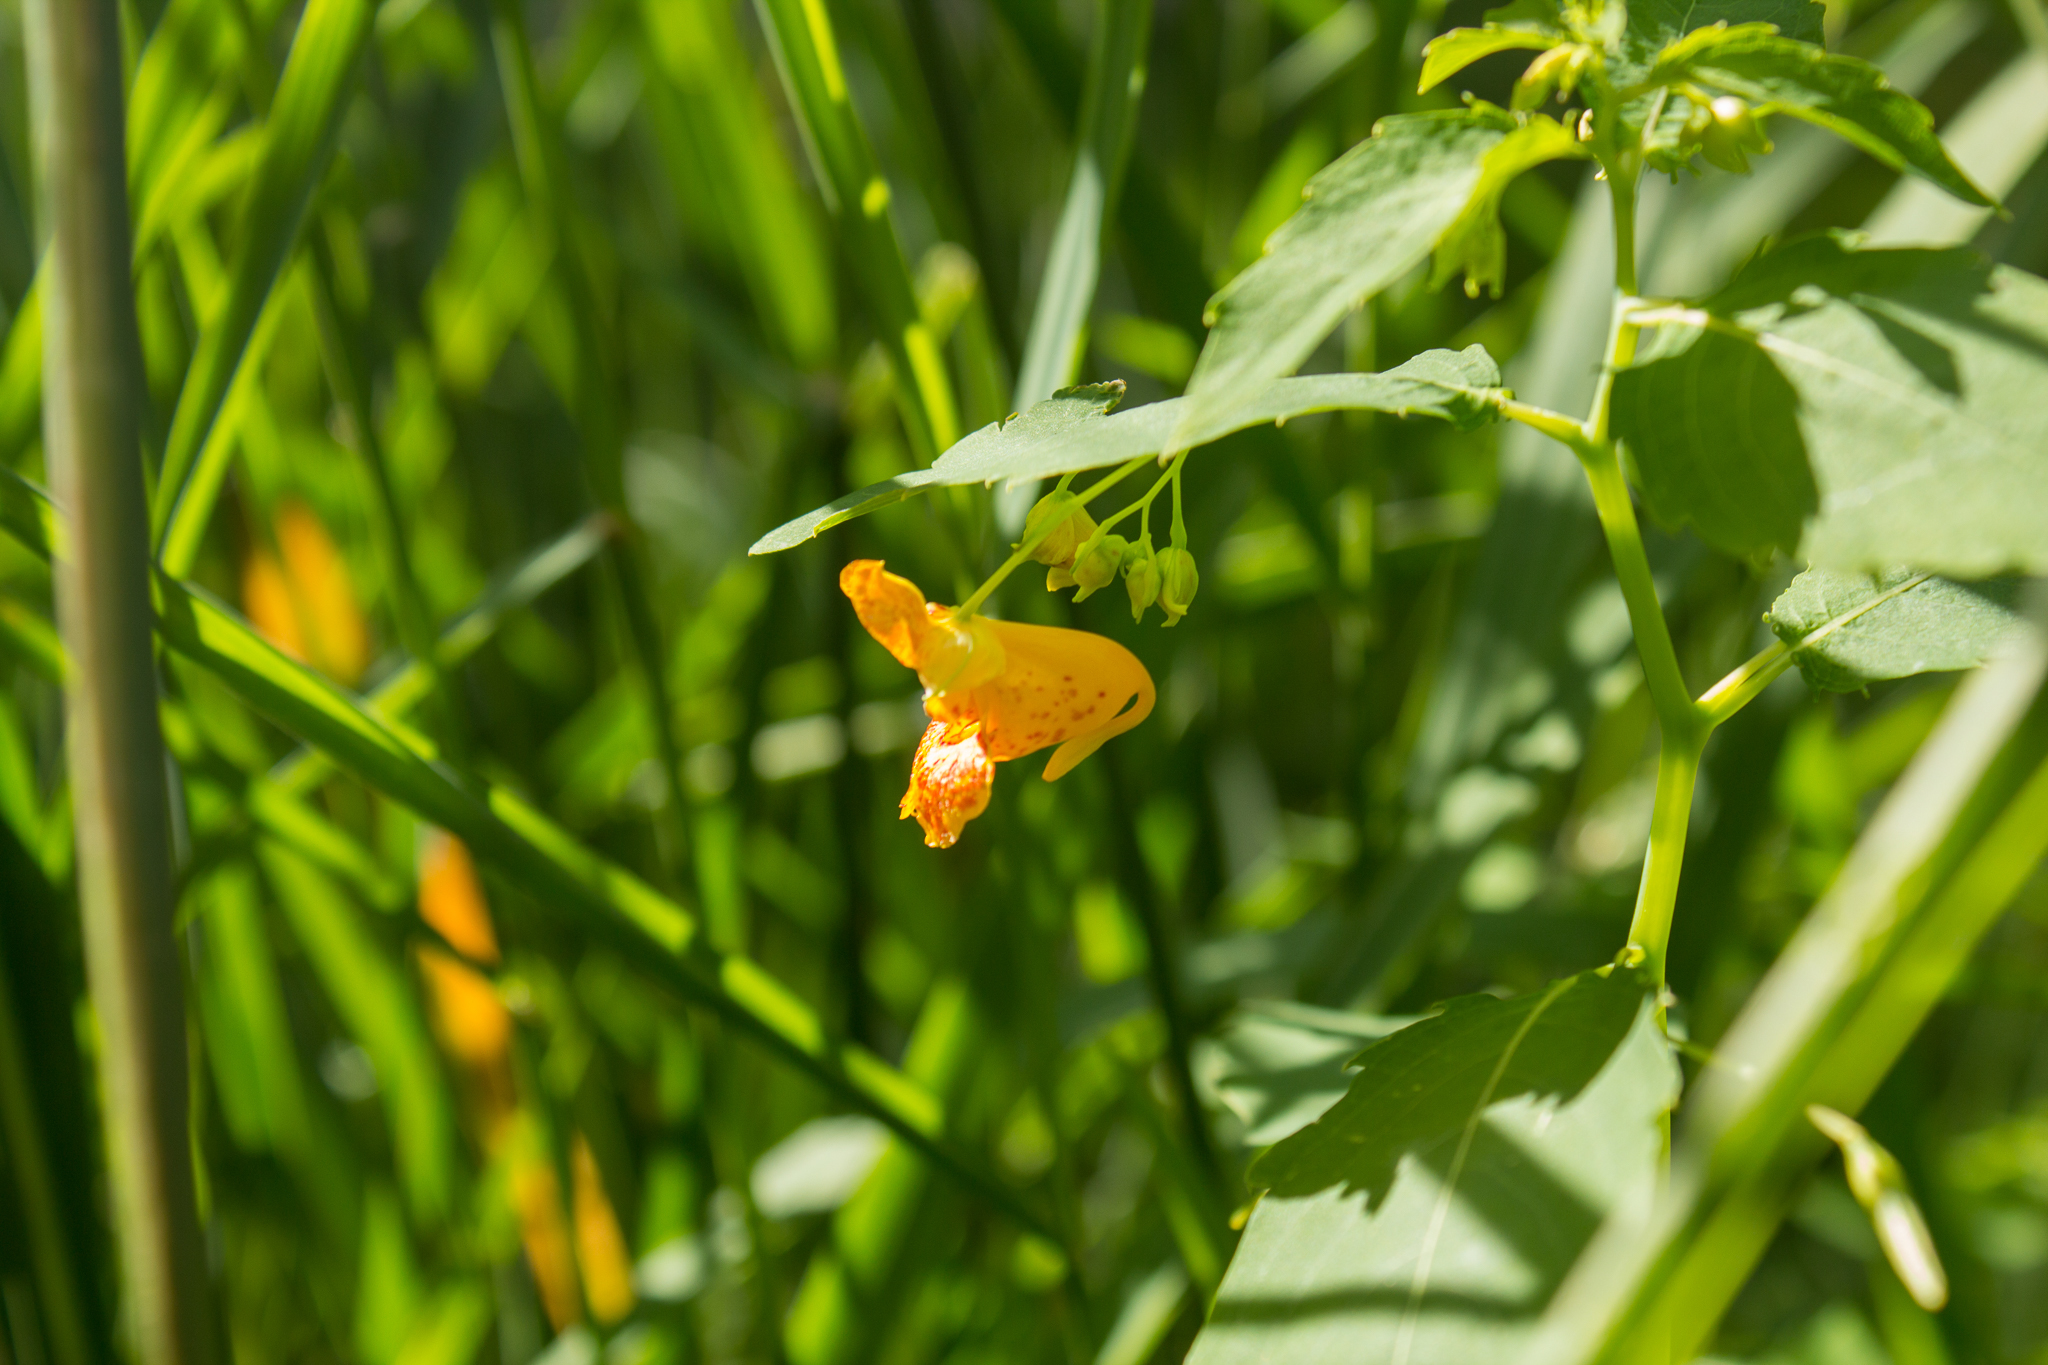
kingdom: Plantae
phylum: Tracheophyta
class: Magnoliopsida
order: Ericales
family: Balsaminaceae
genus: Impatiens
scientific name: Impatiens capensis
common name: Orange balsam
